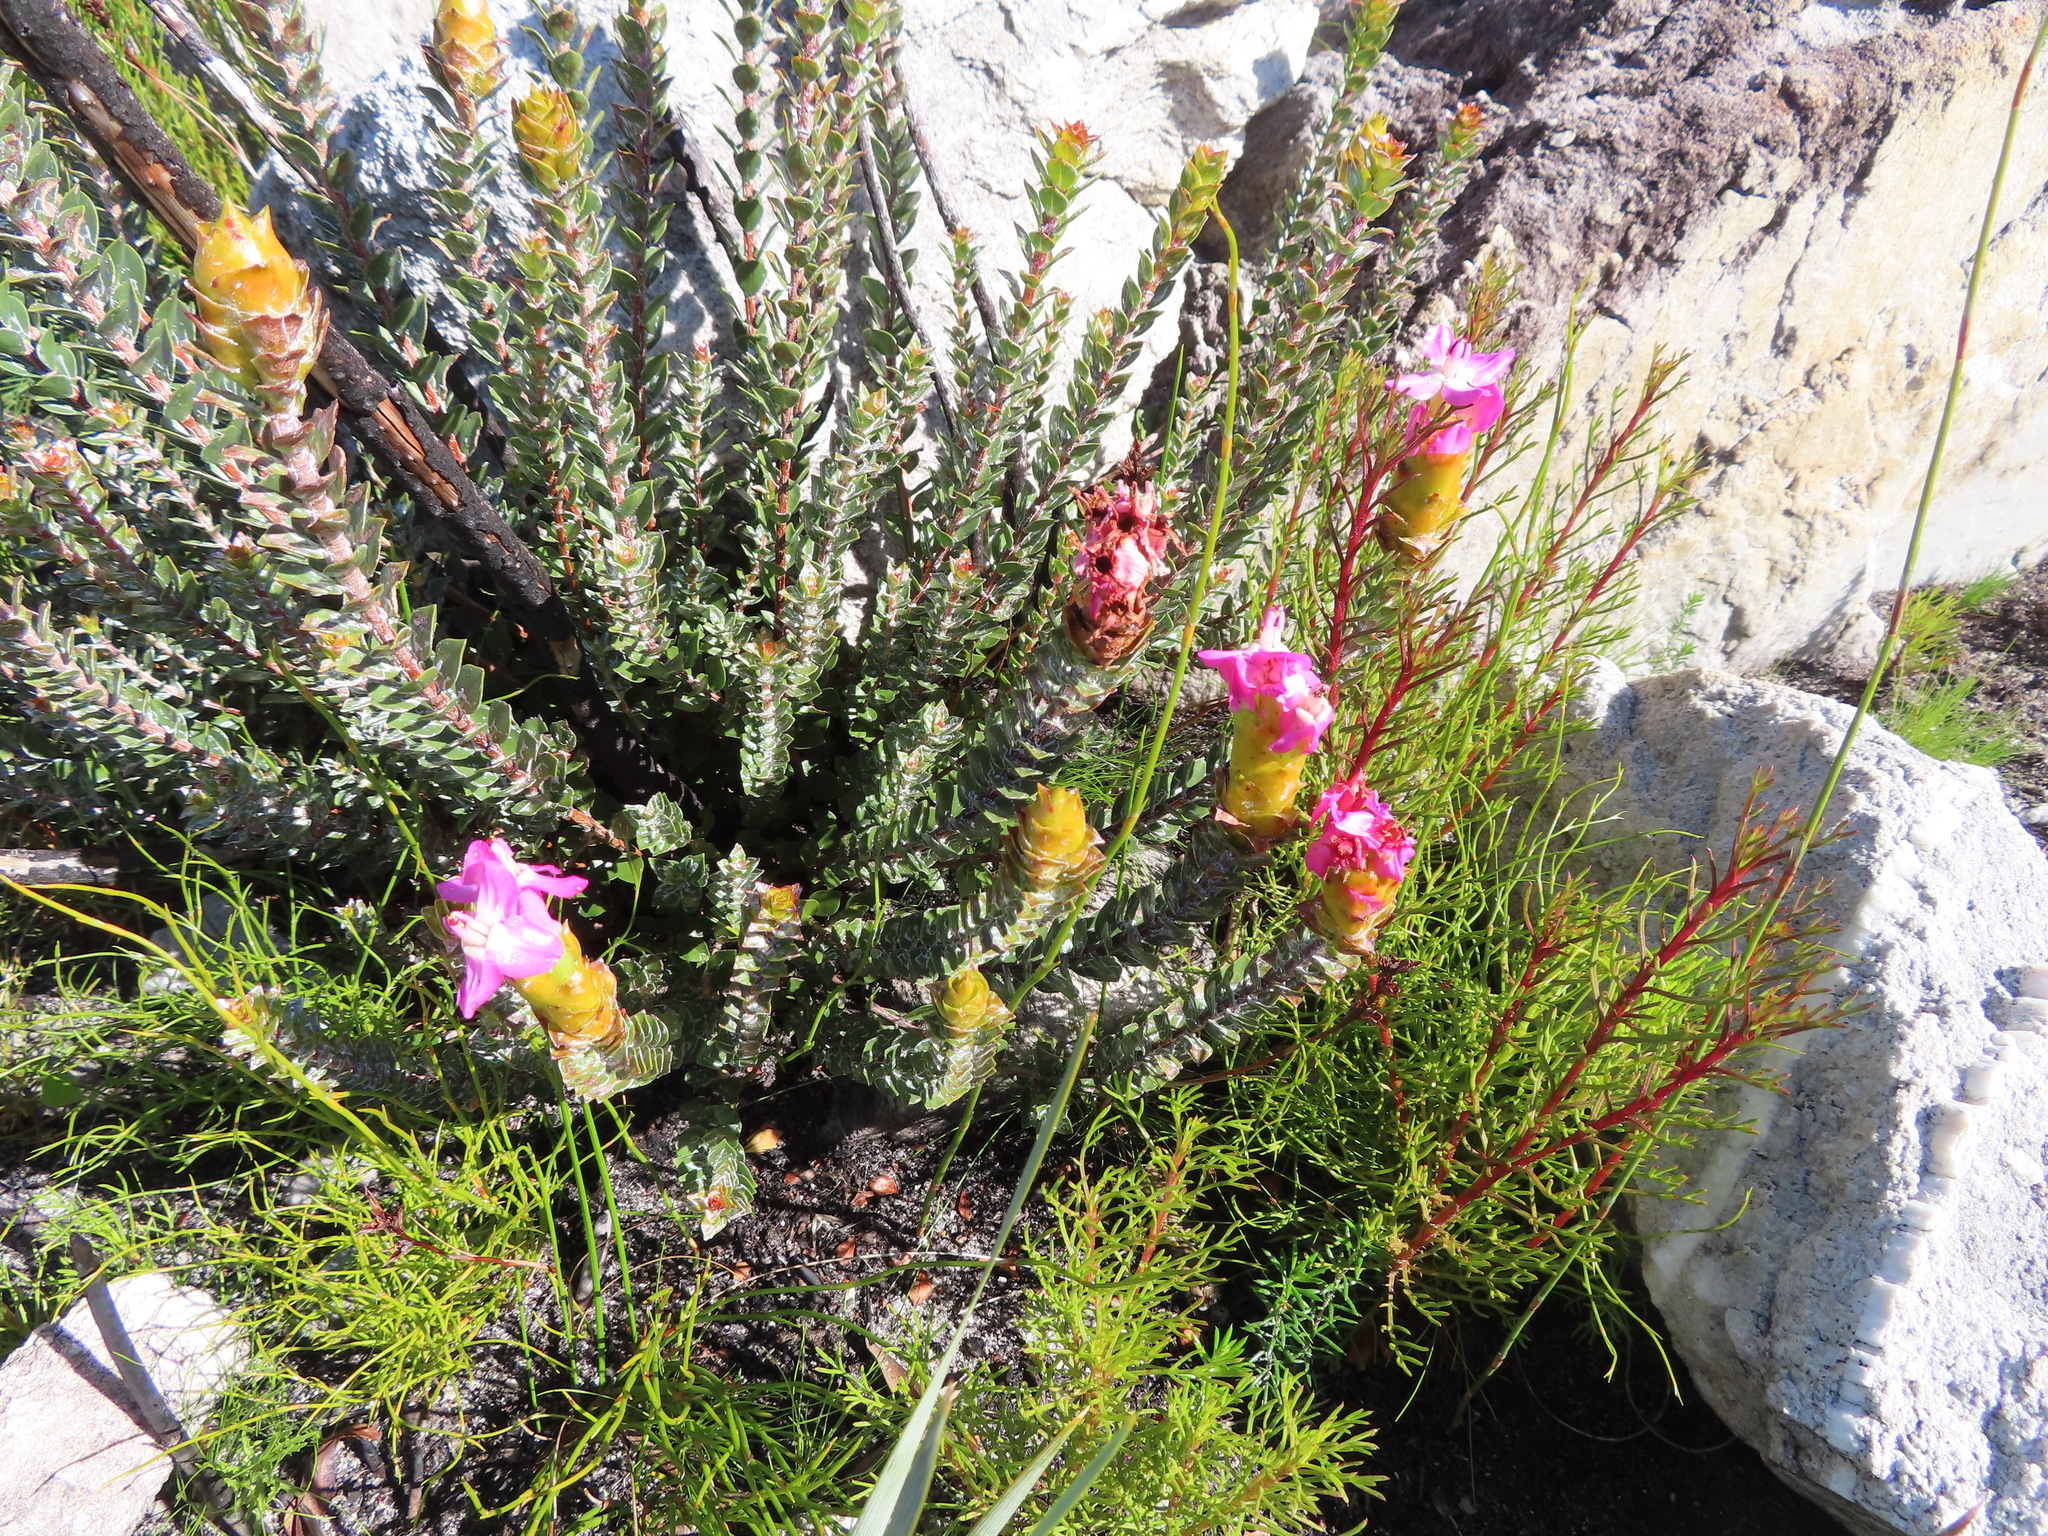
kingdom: Plantae
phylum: Tracheophyta
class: Magnoliopsida
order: Myrtales
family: Penaeaceae
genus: Saltera
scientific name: Saltera sarcocolla
